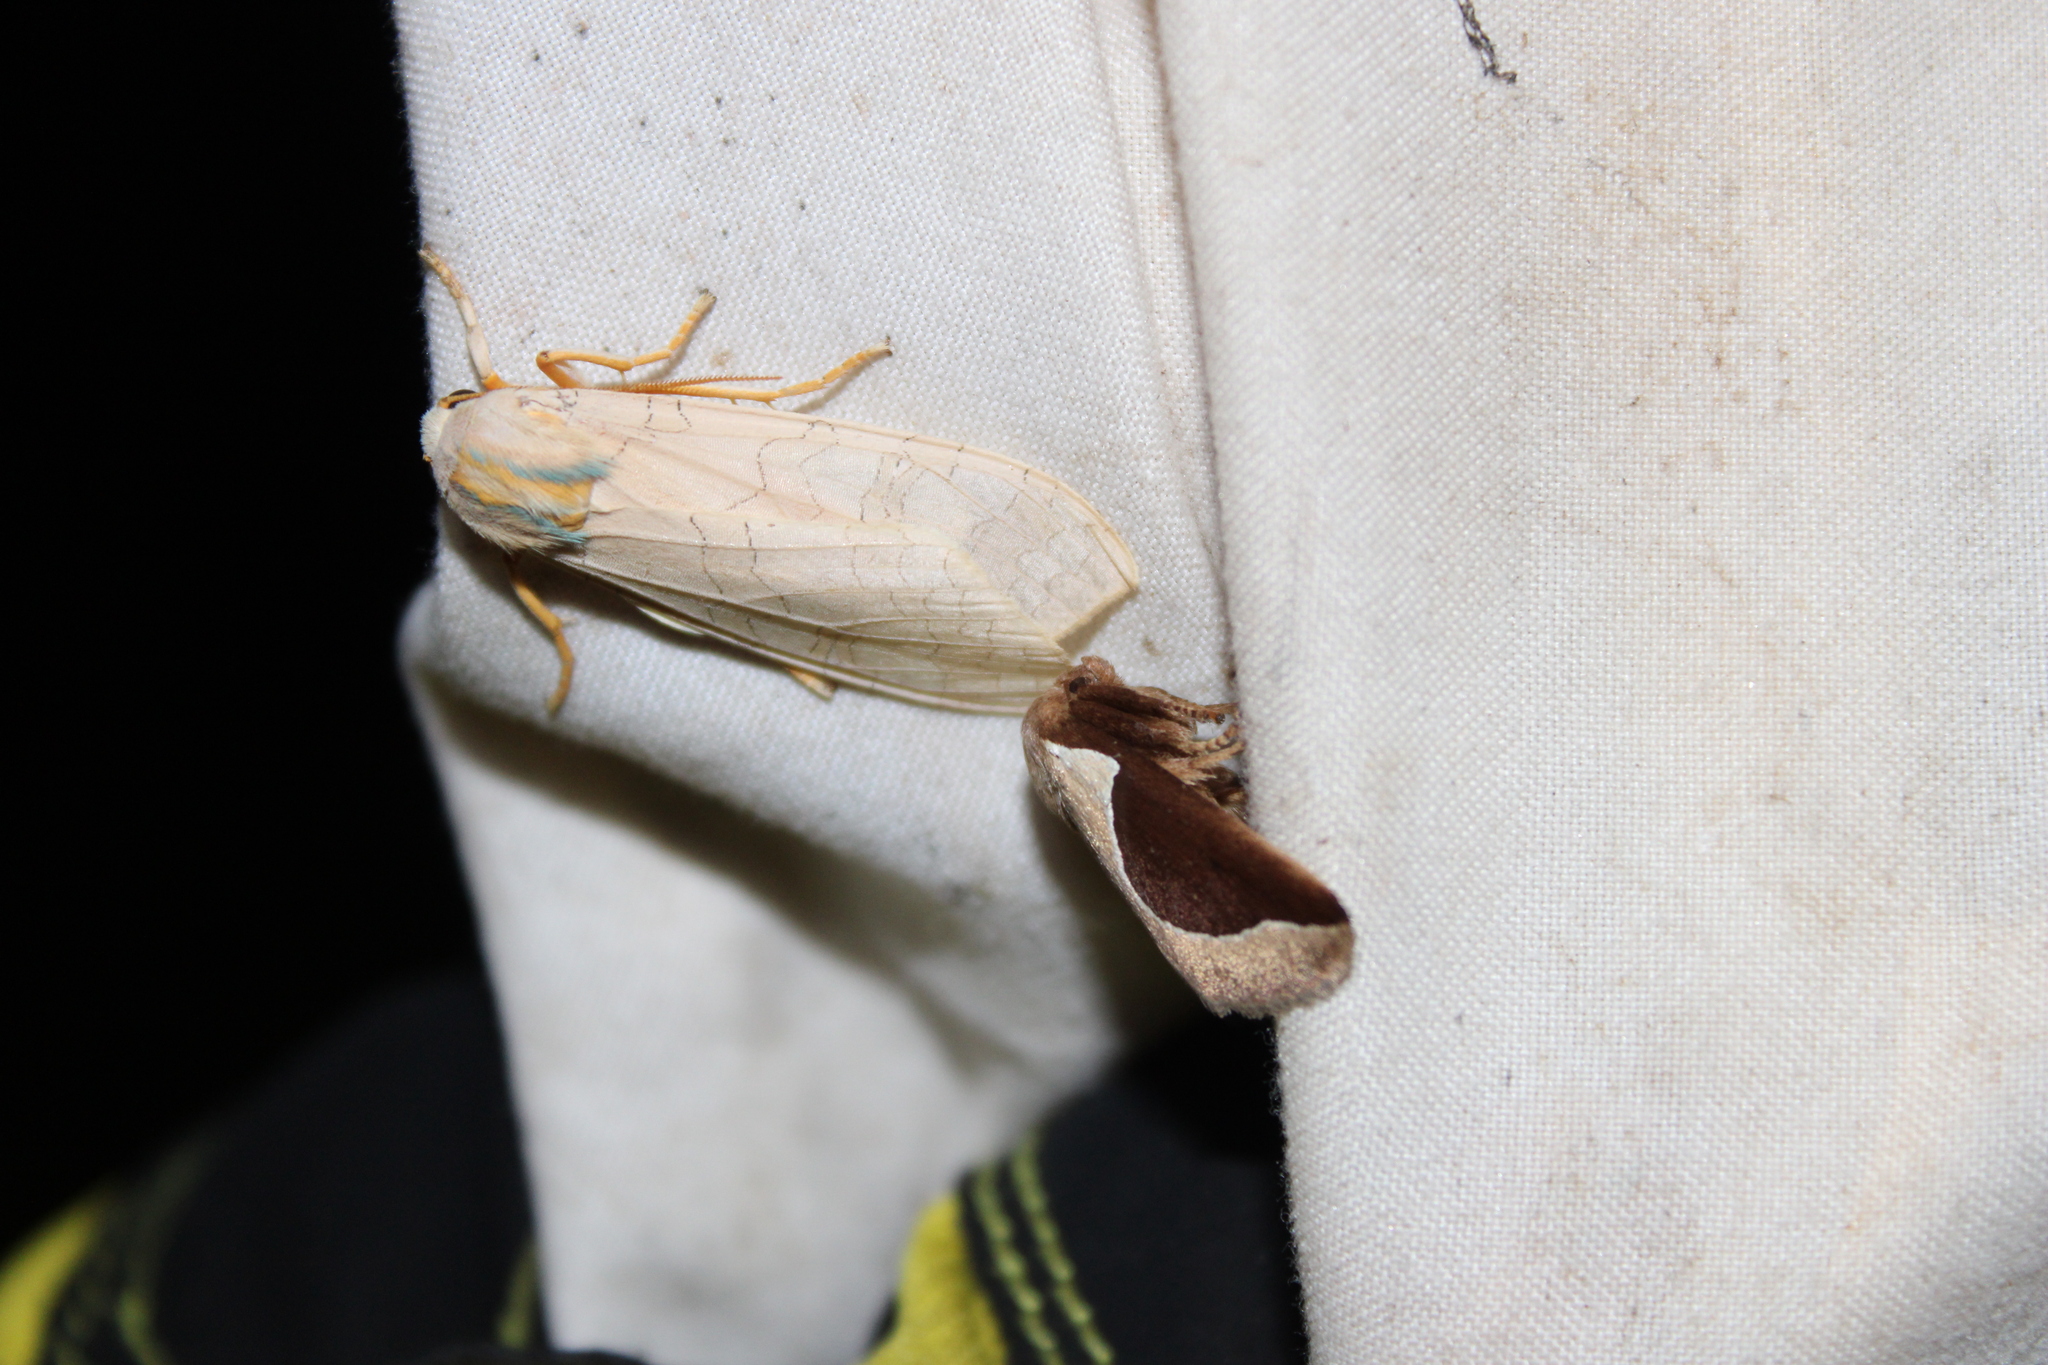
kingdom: Animalia
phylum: Arthropoda
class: Insecta
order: Lepidoptera
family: Erebidae
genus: Halysidota
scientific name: Halysidota
